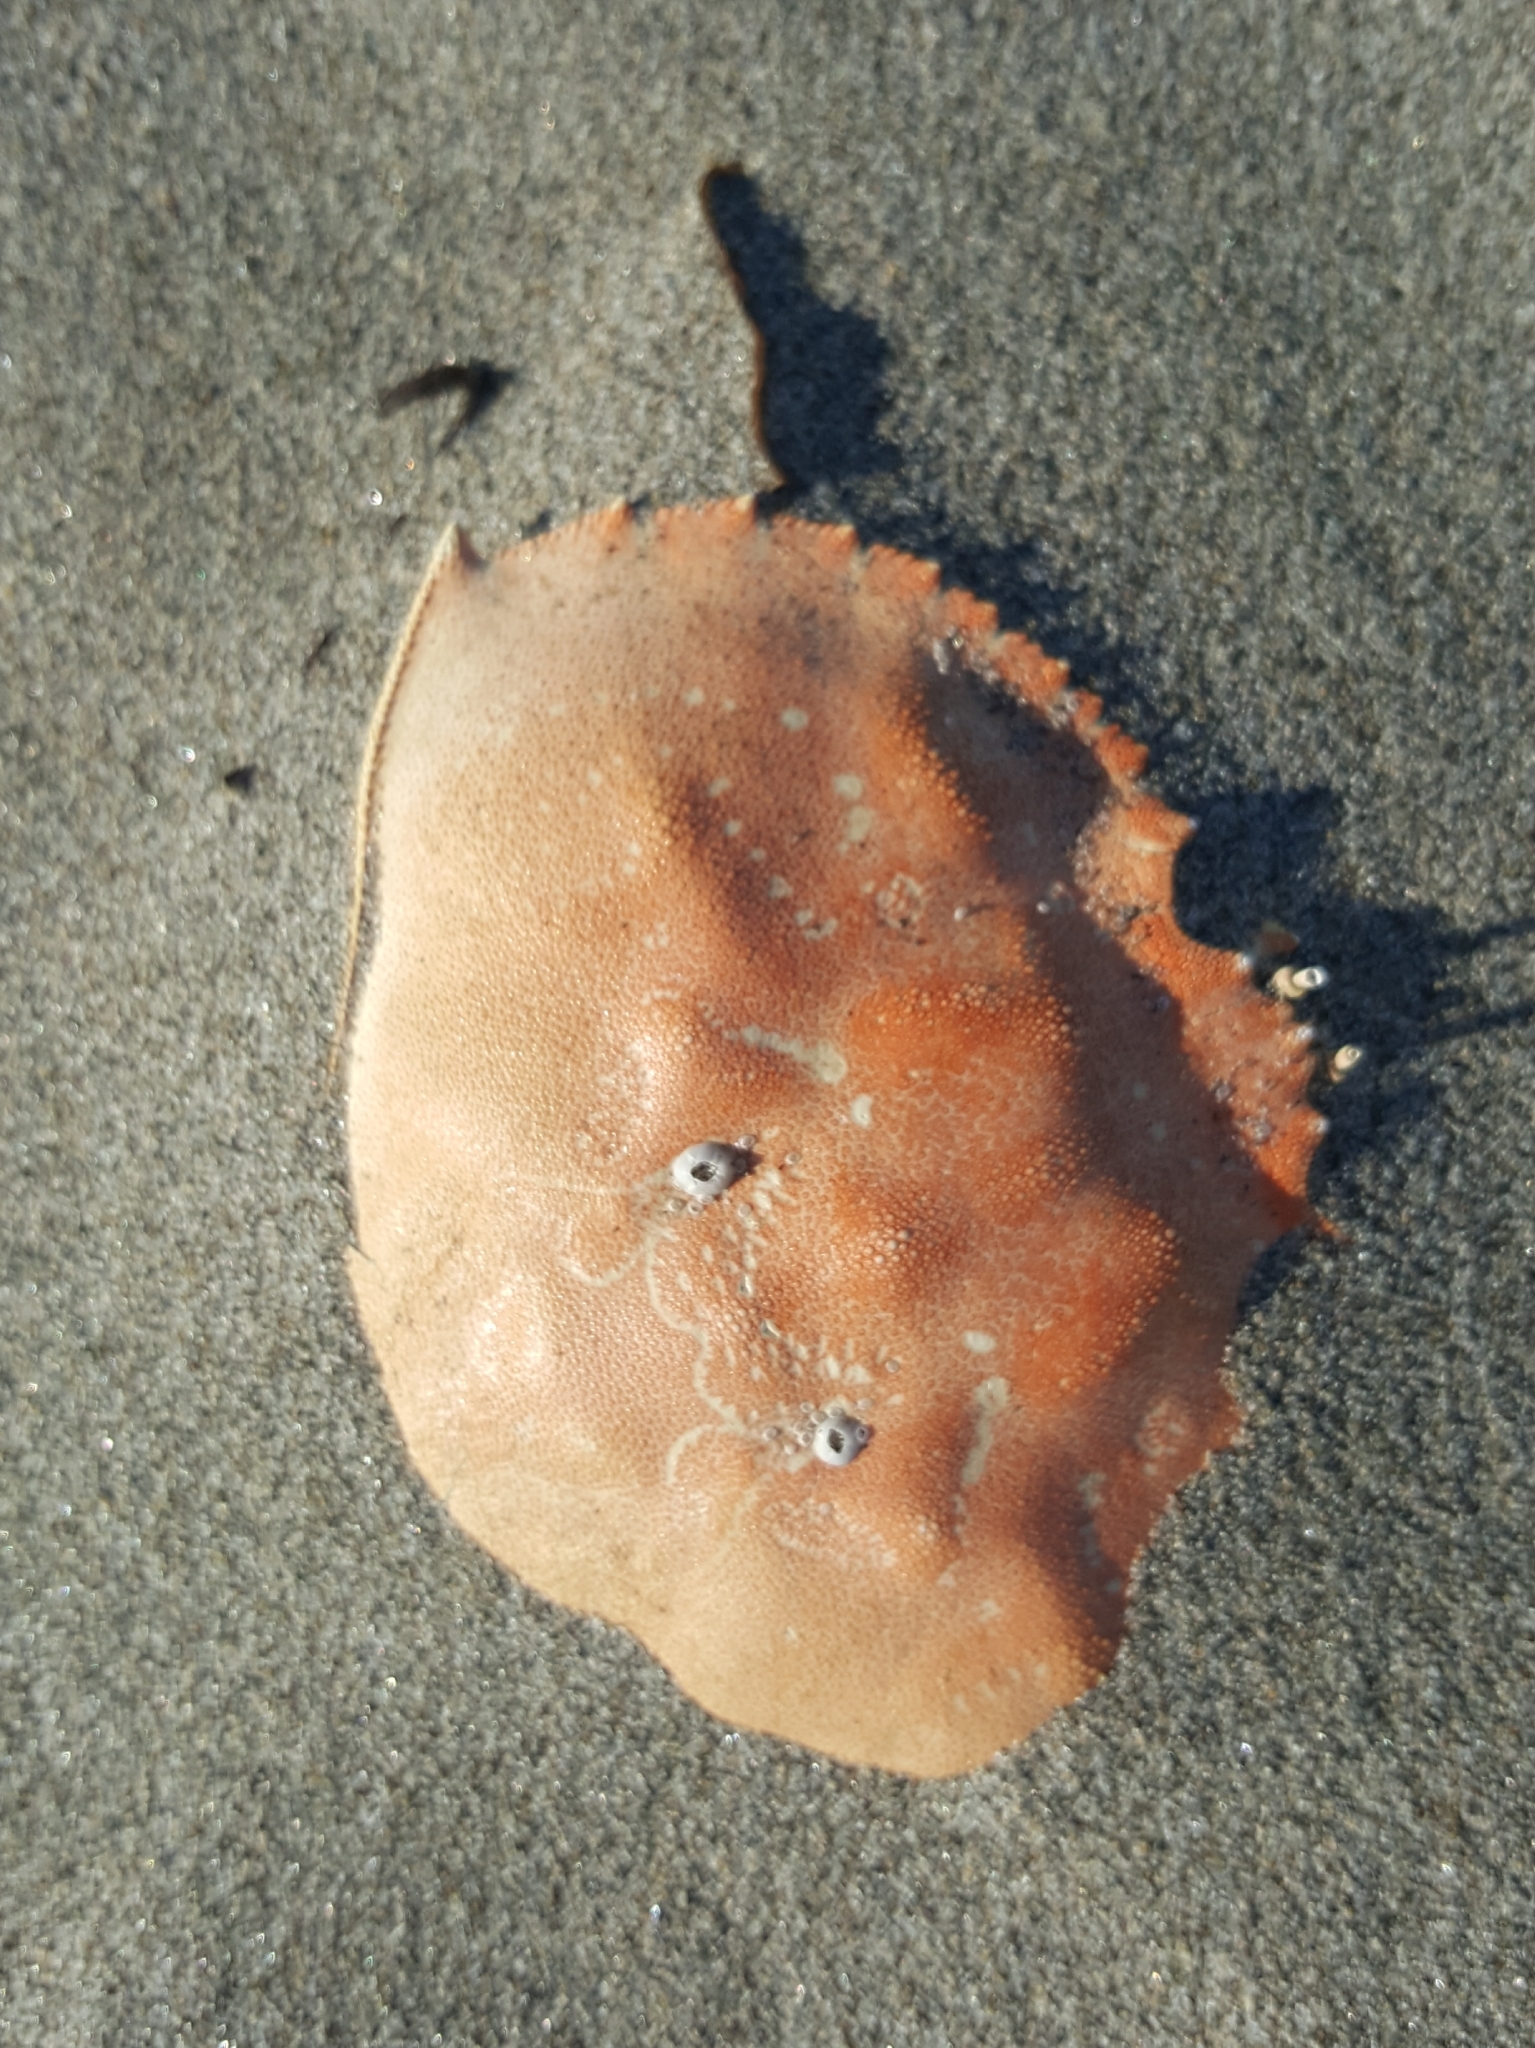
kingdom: Animalia
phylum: Arthropoda
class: Malacostraca
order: Decapoda
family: Cancridae
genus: Metacarcinus
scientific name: Metacarcinus magister
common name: Californian crab
